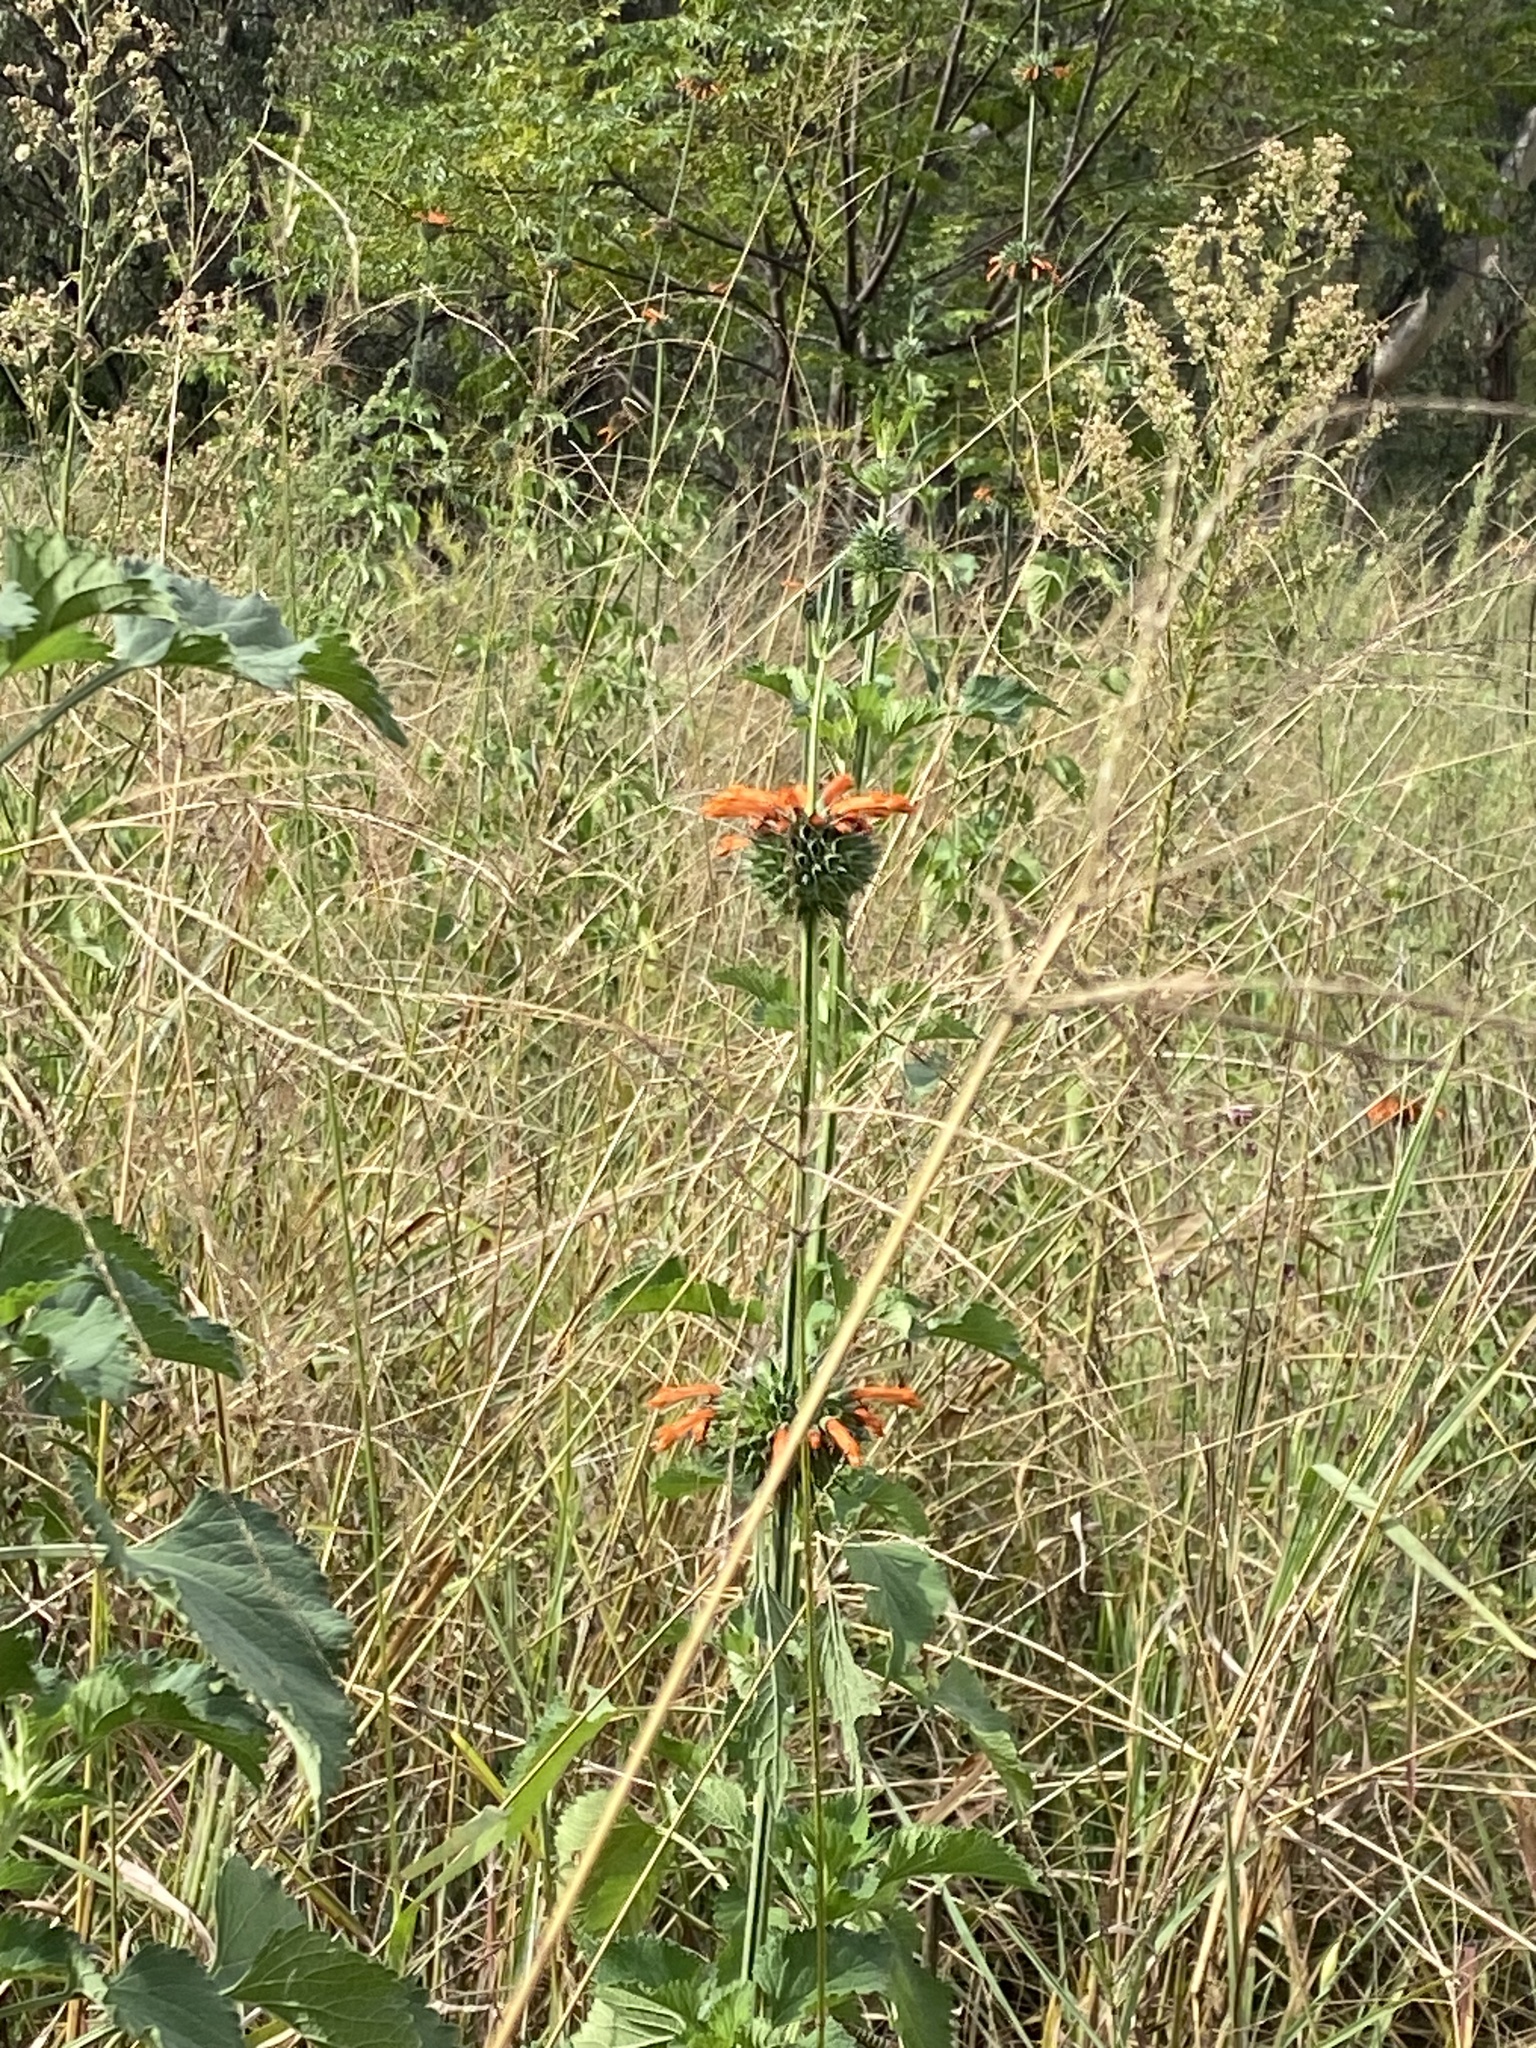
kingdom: Plantae
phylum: Tracheophyta
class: Magnoliopsida
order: Lamiales
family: Lamiaceae
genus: Leonotis
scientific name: Leonotis nepetifolia
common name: Christmas candlestick
